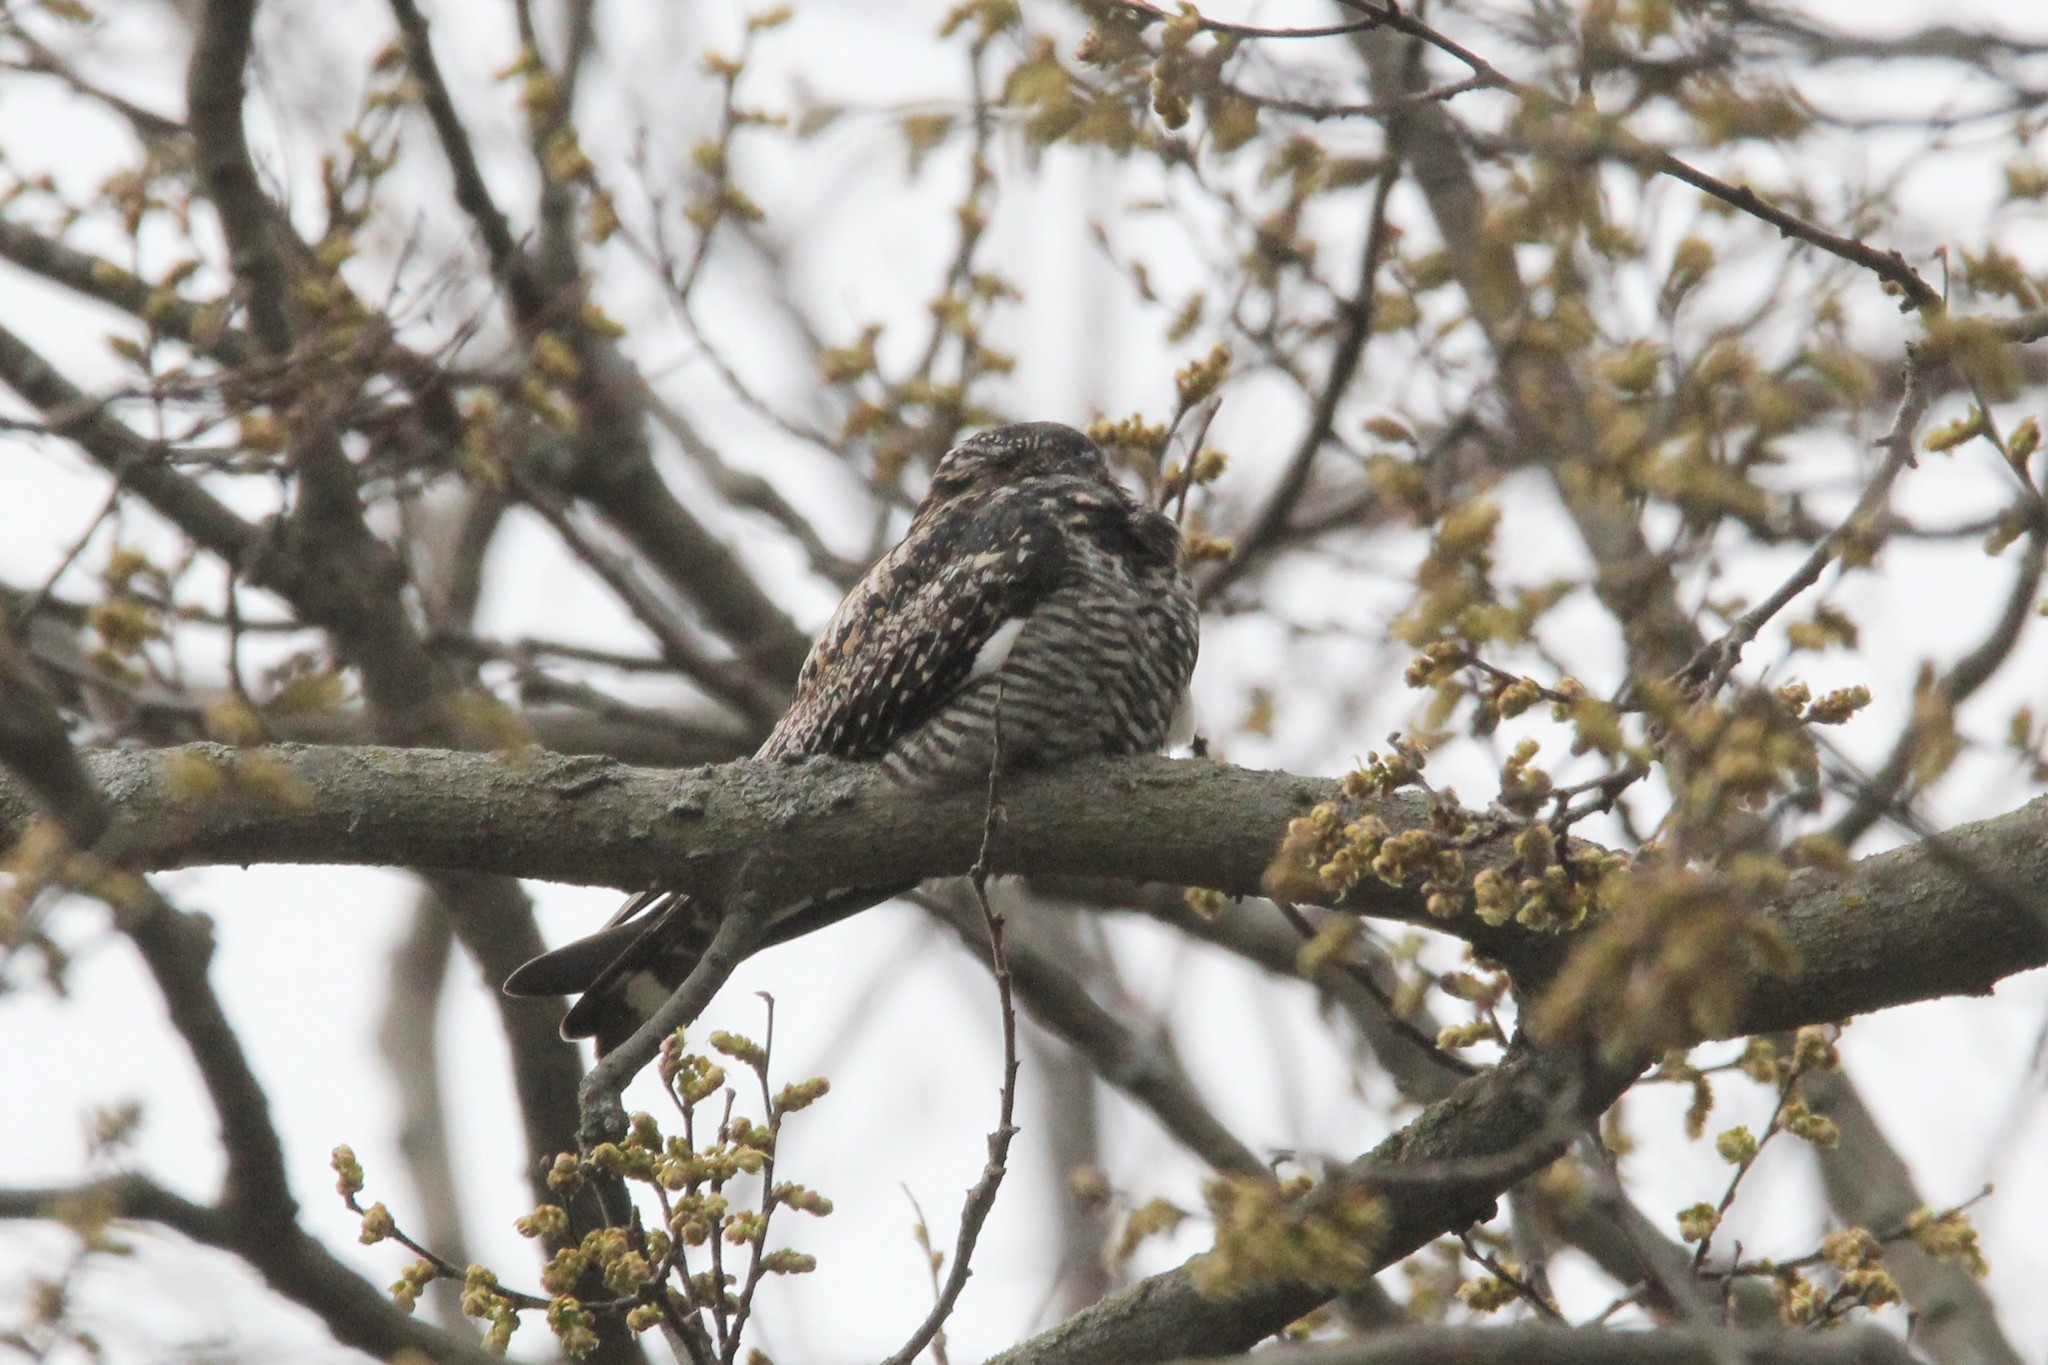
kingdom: Animalia
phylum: Chordata
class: Aves
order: Caprimulgiformes
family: Caprimulgidae
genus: Chordeiles
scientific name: Chordeiles minor
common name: Common nighthawk
